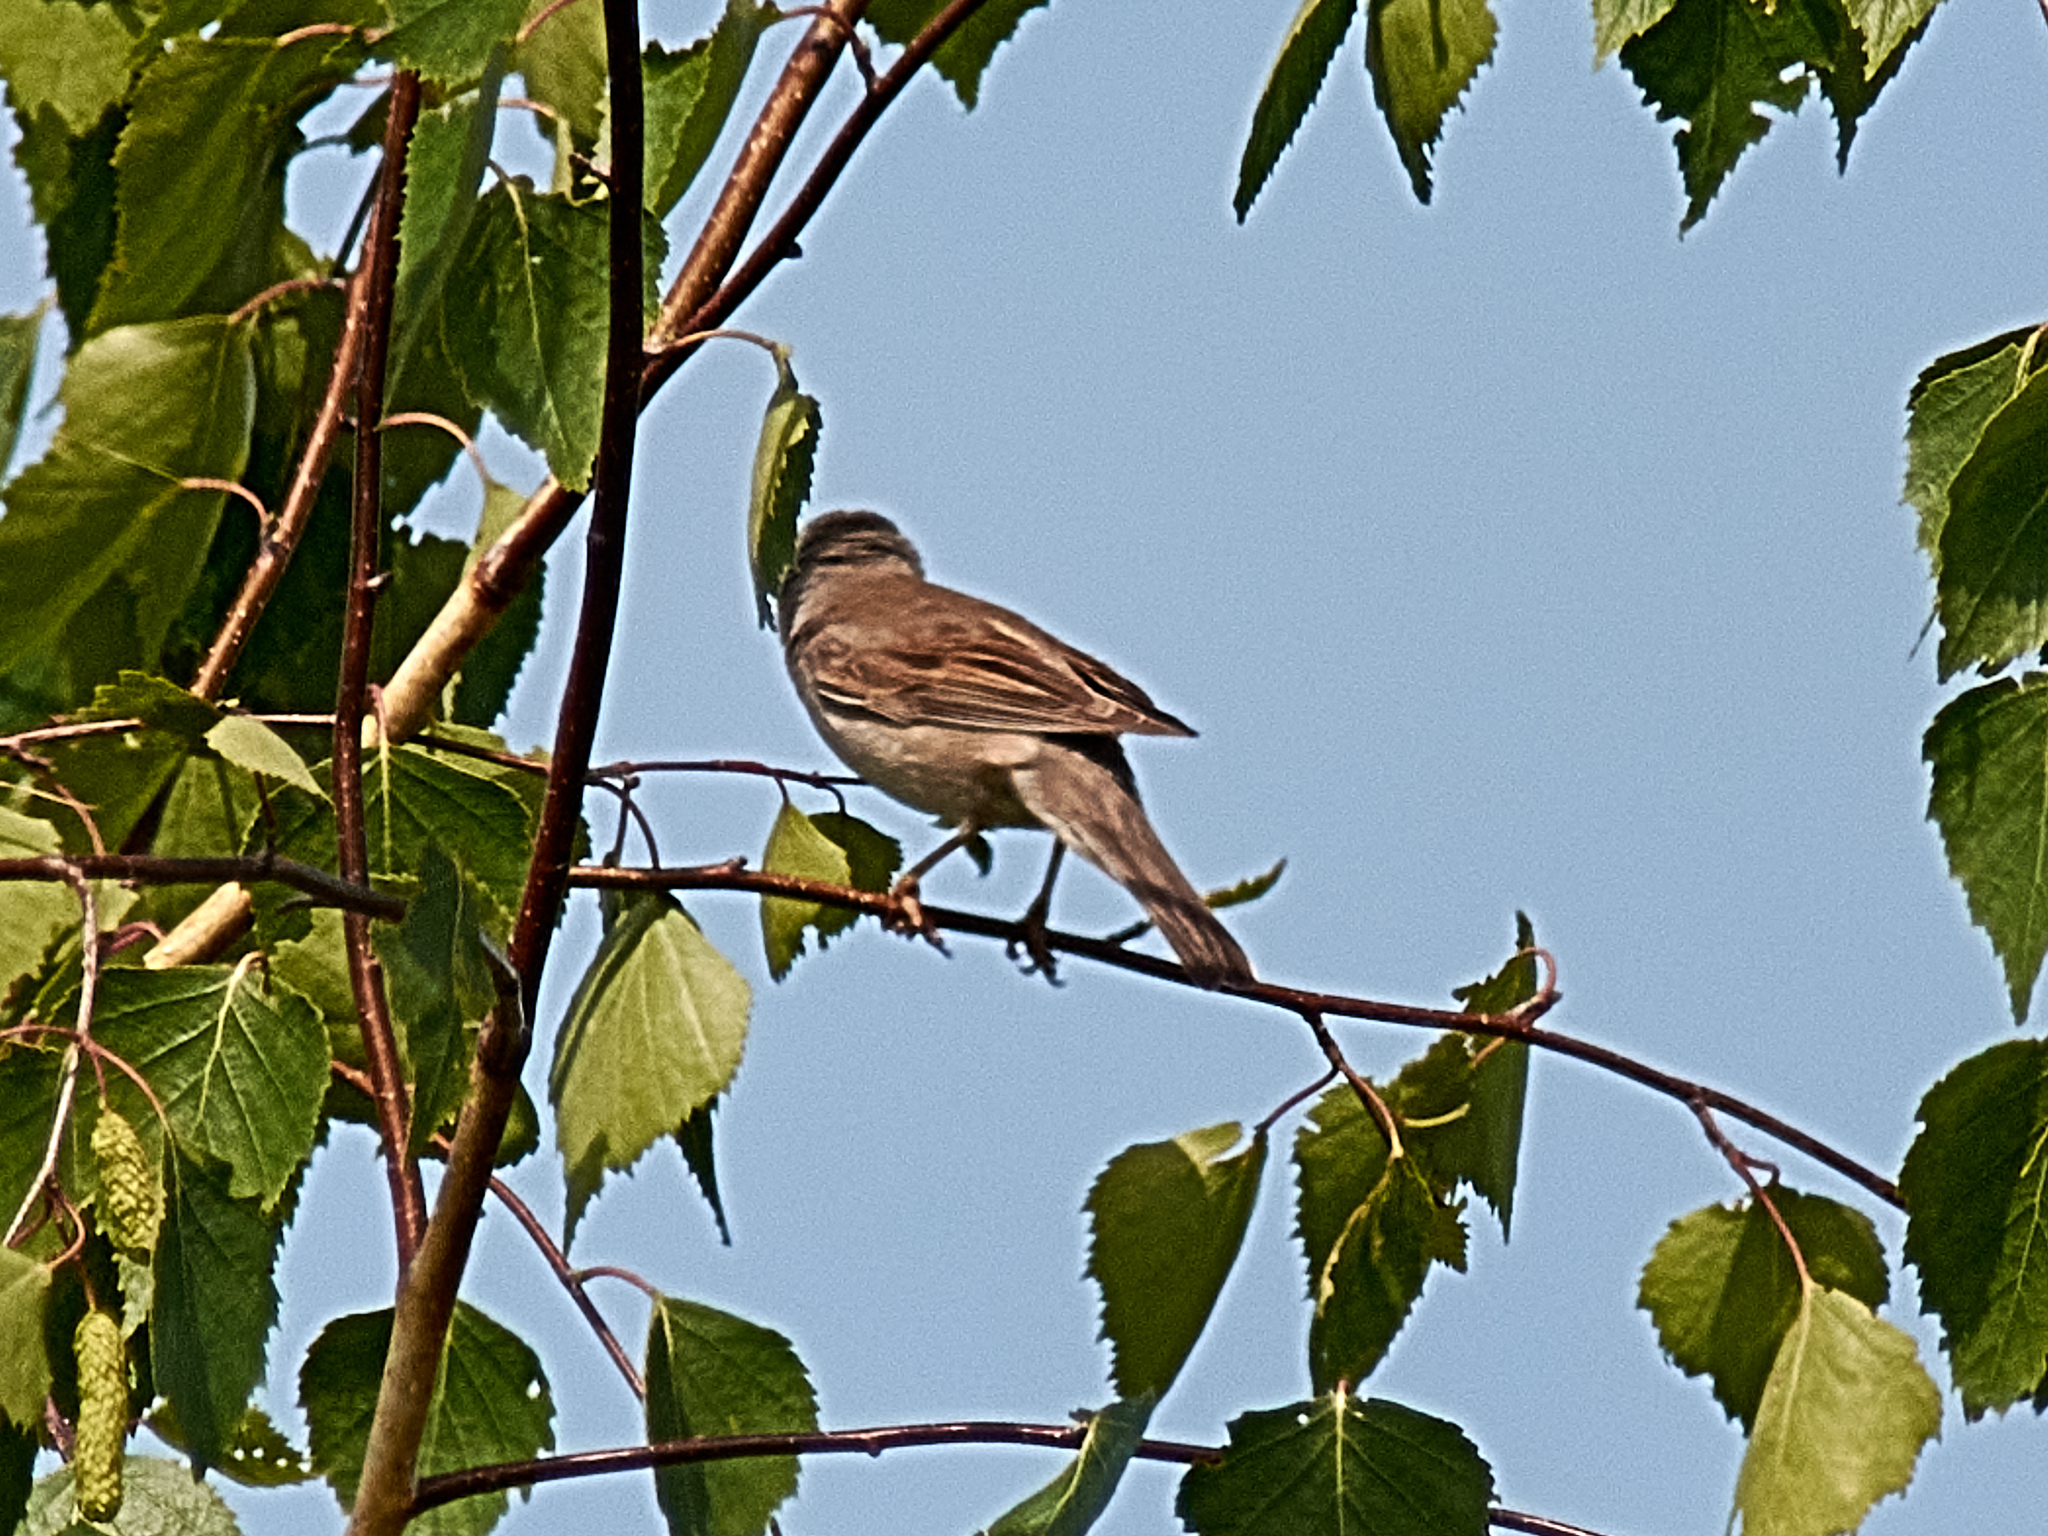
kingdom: Animalia
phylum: Chordata
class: Aves
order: Passeriformes
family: Sylviidae
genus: Sylvia
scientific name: Sylvia communis
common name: Common whitethroat
